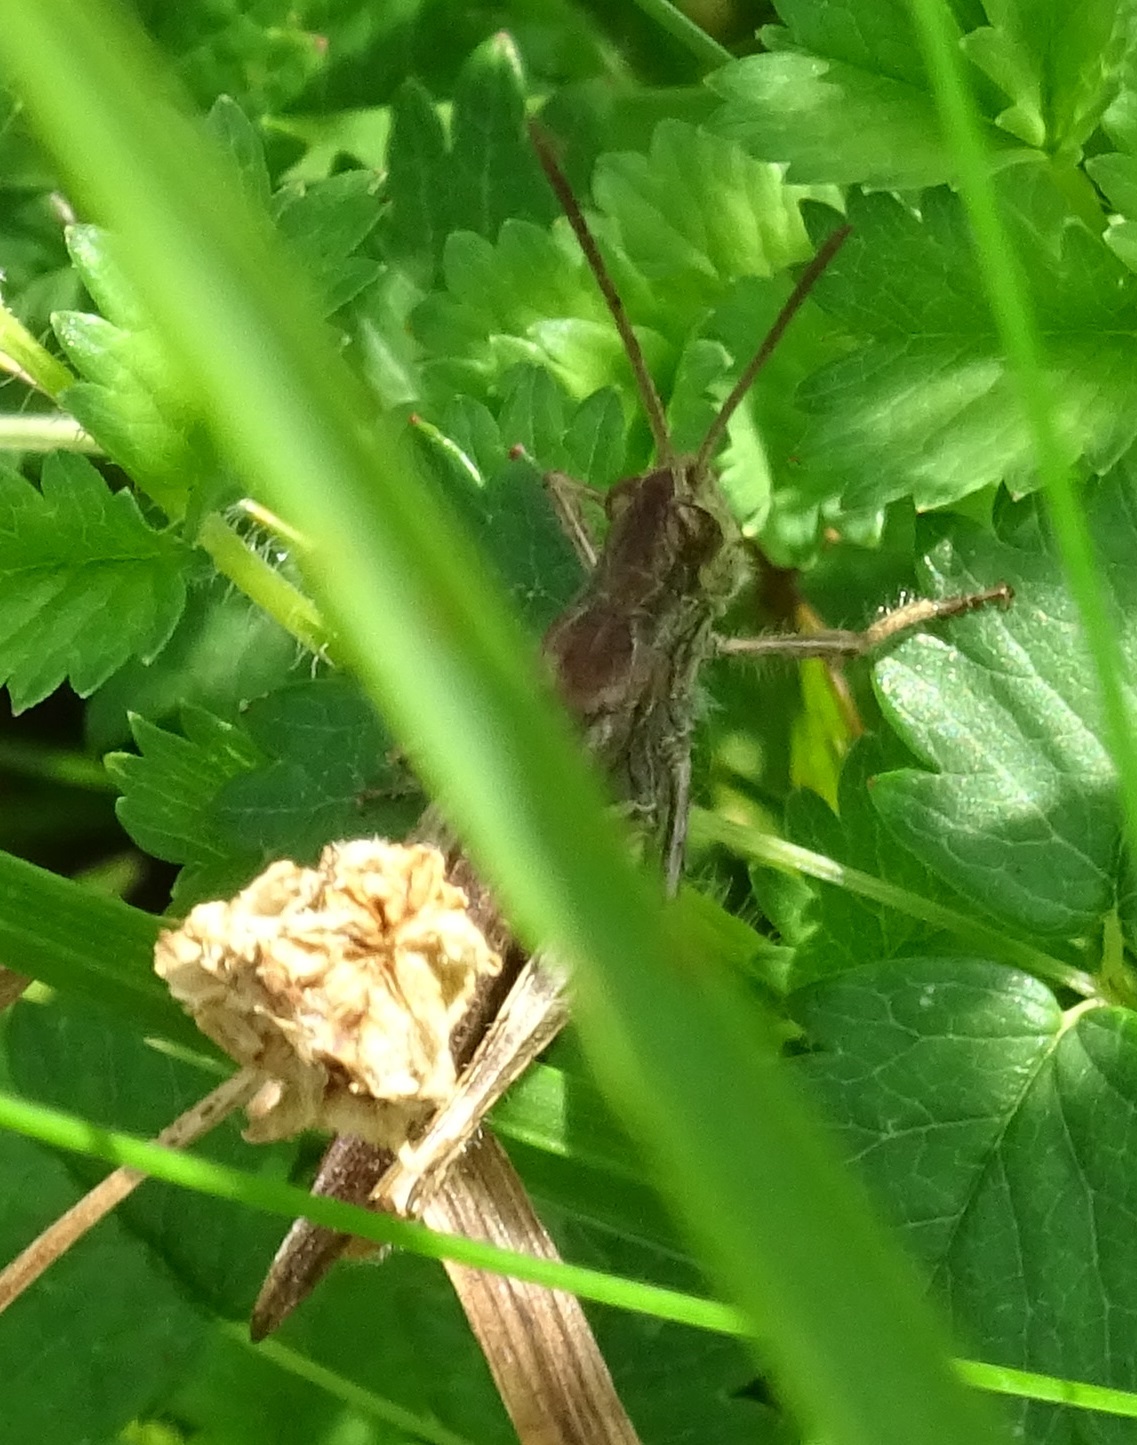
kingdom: Animalia
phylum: Arthropoda
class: Insecta
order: Orthoptera
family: Acrididae
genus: Chorthippus
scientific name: Chorthippus brunneus
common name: Field grasshopper
